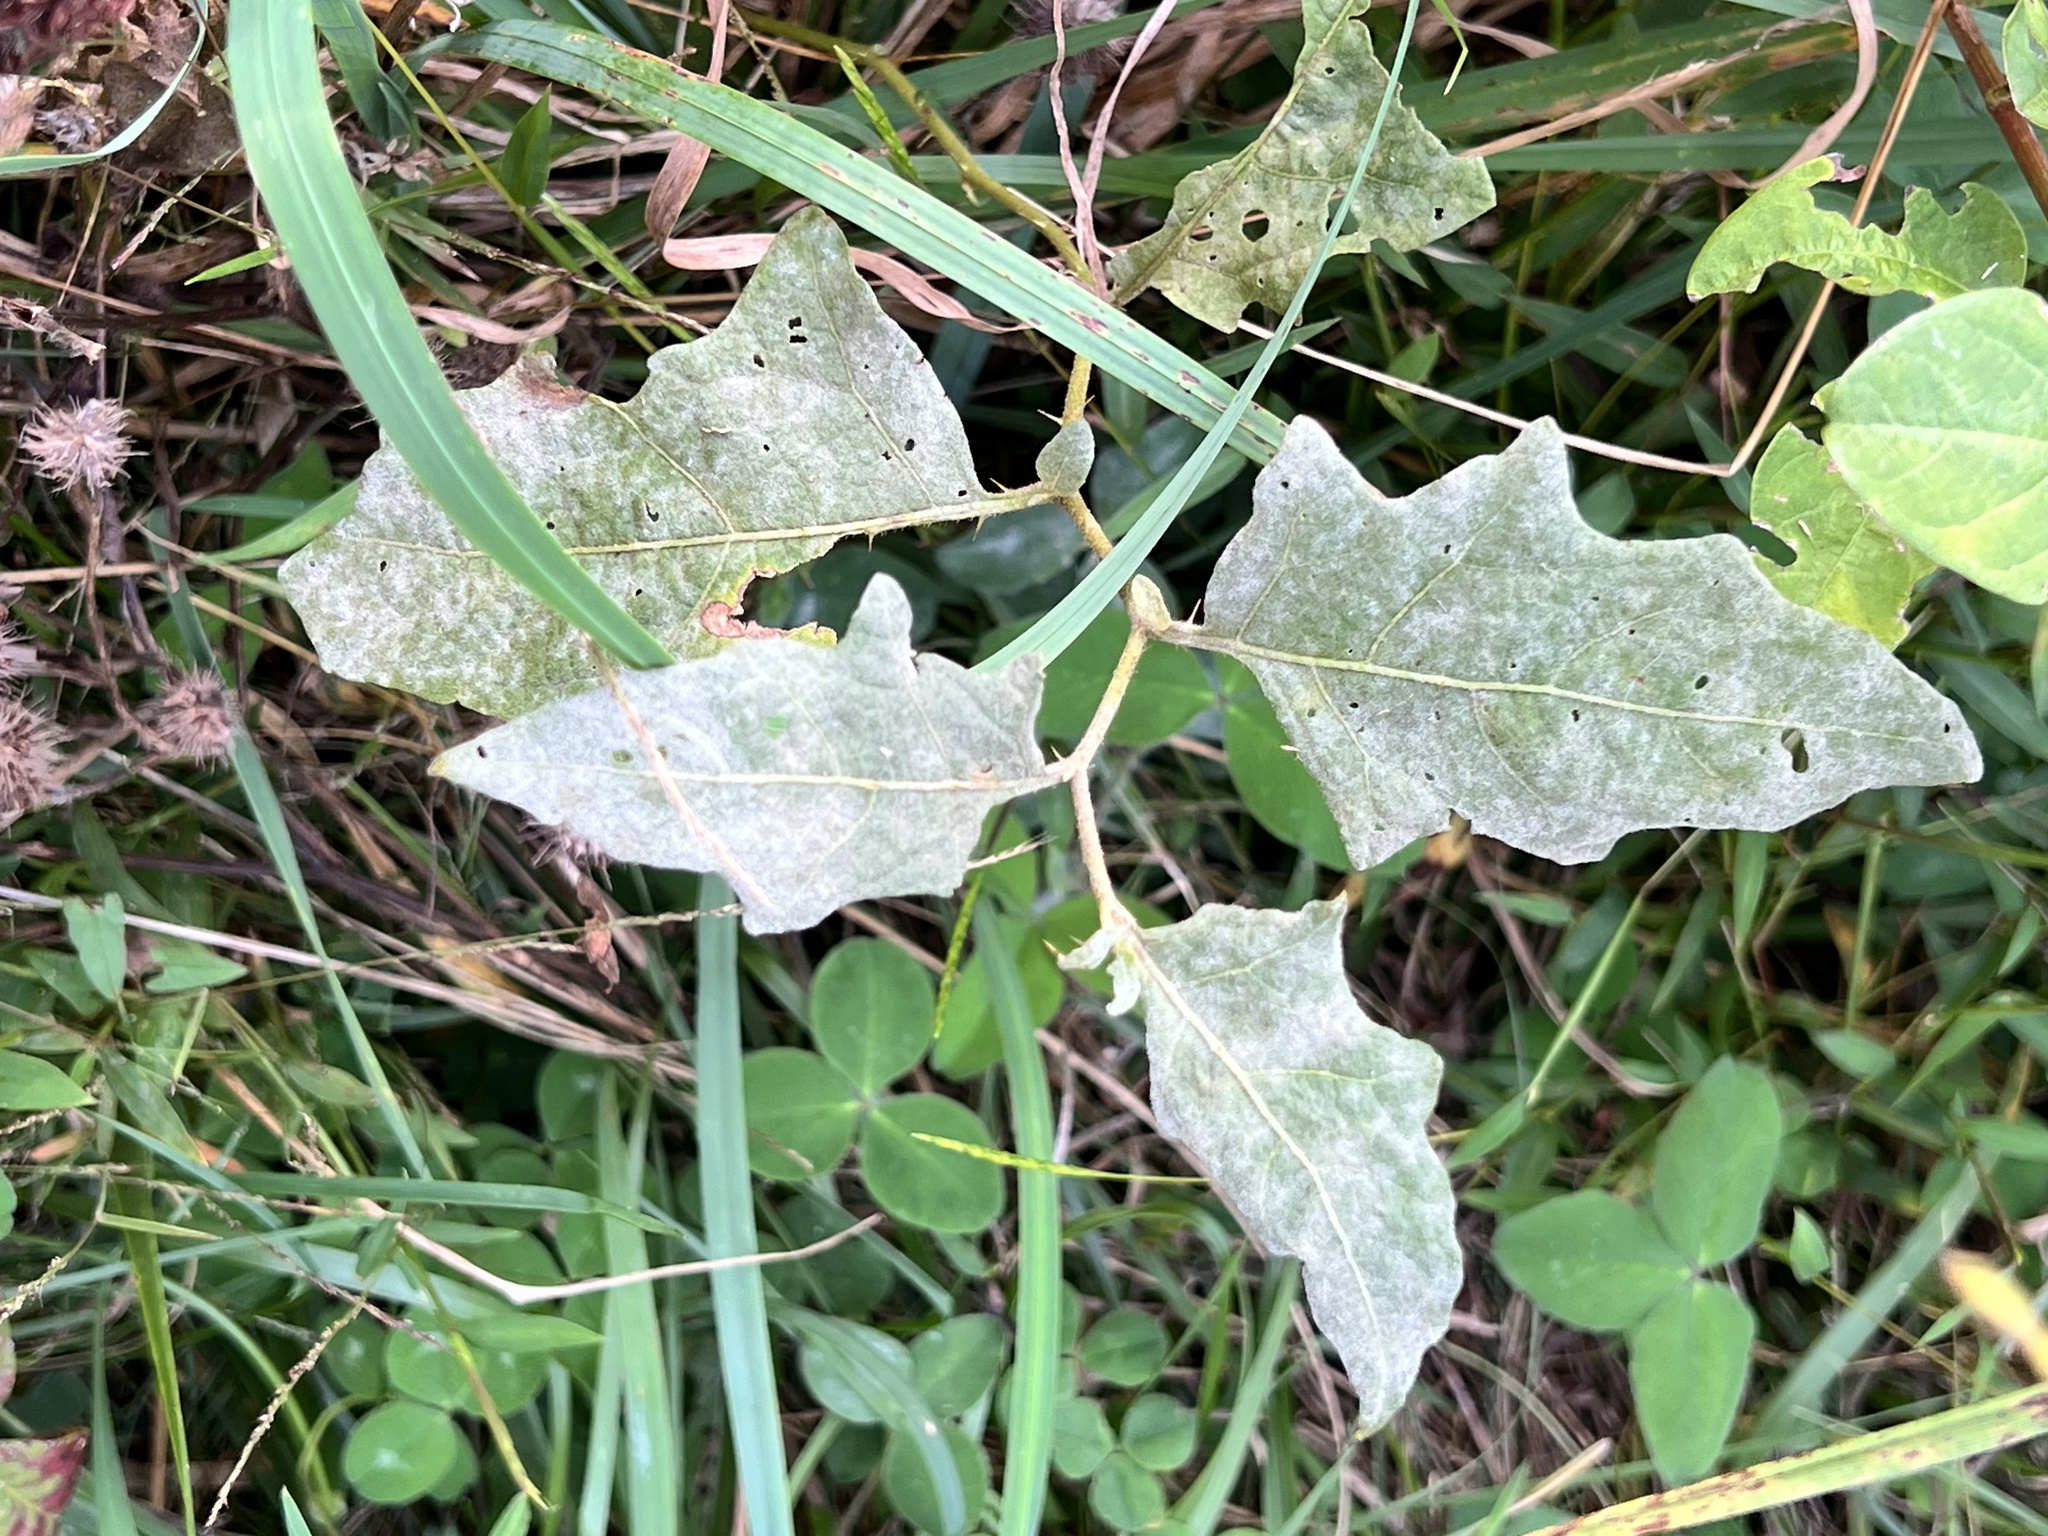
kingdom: Fungi
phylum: Ascomycota
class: Leotiomycetes
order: Helotiales
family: Erysiphaceae
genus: Podosphaera
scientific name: Podosphaera solanacearum
